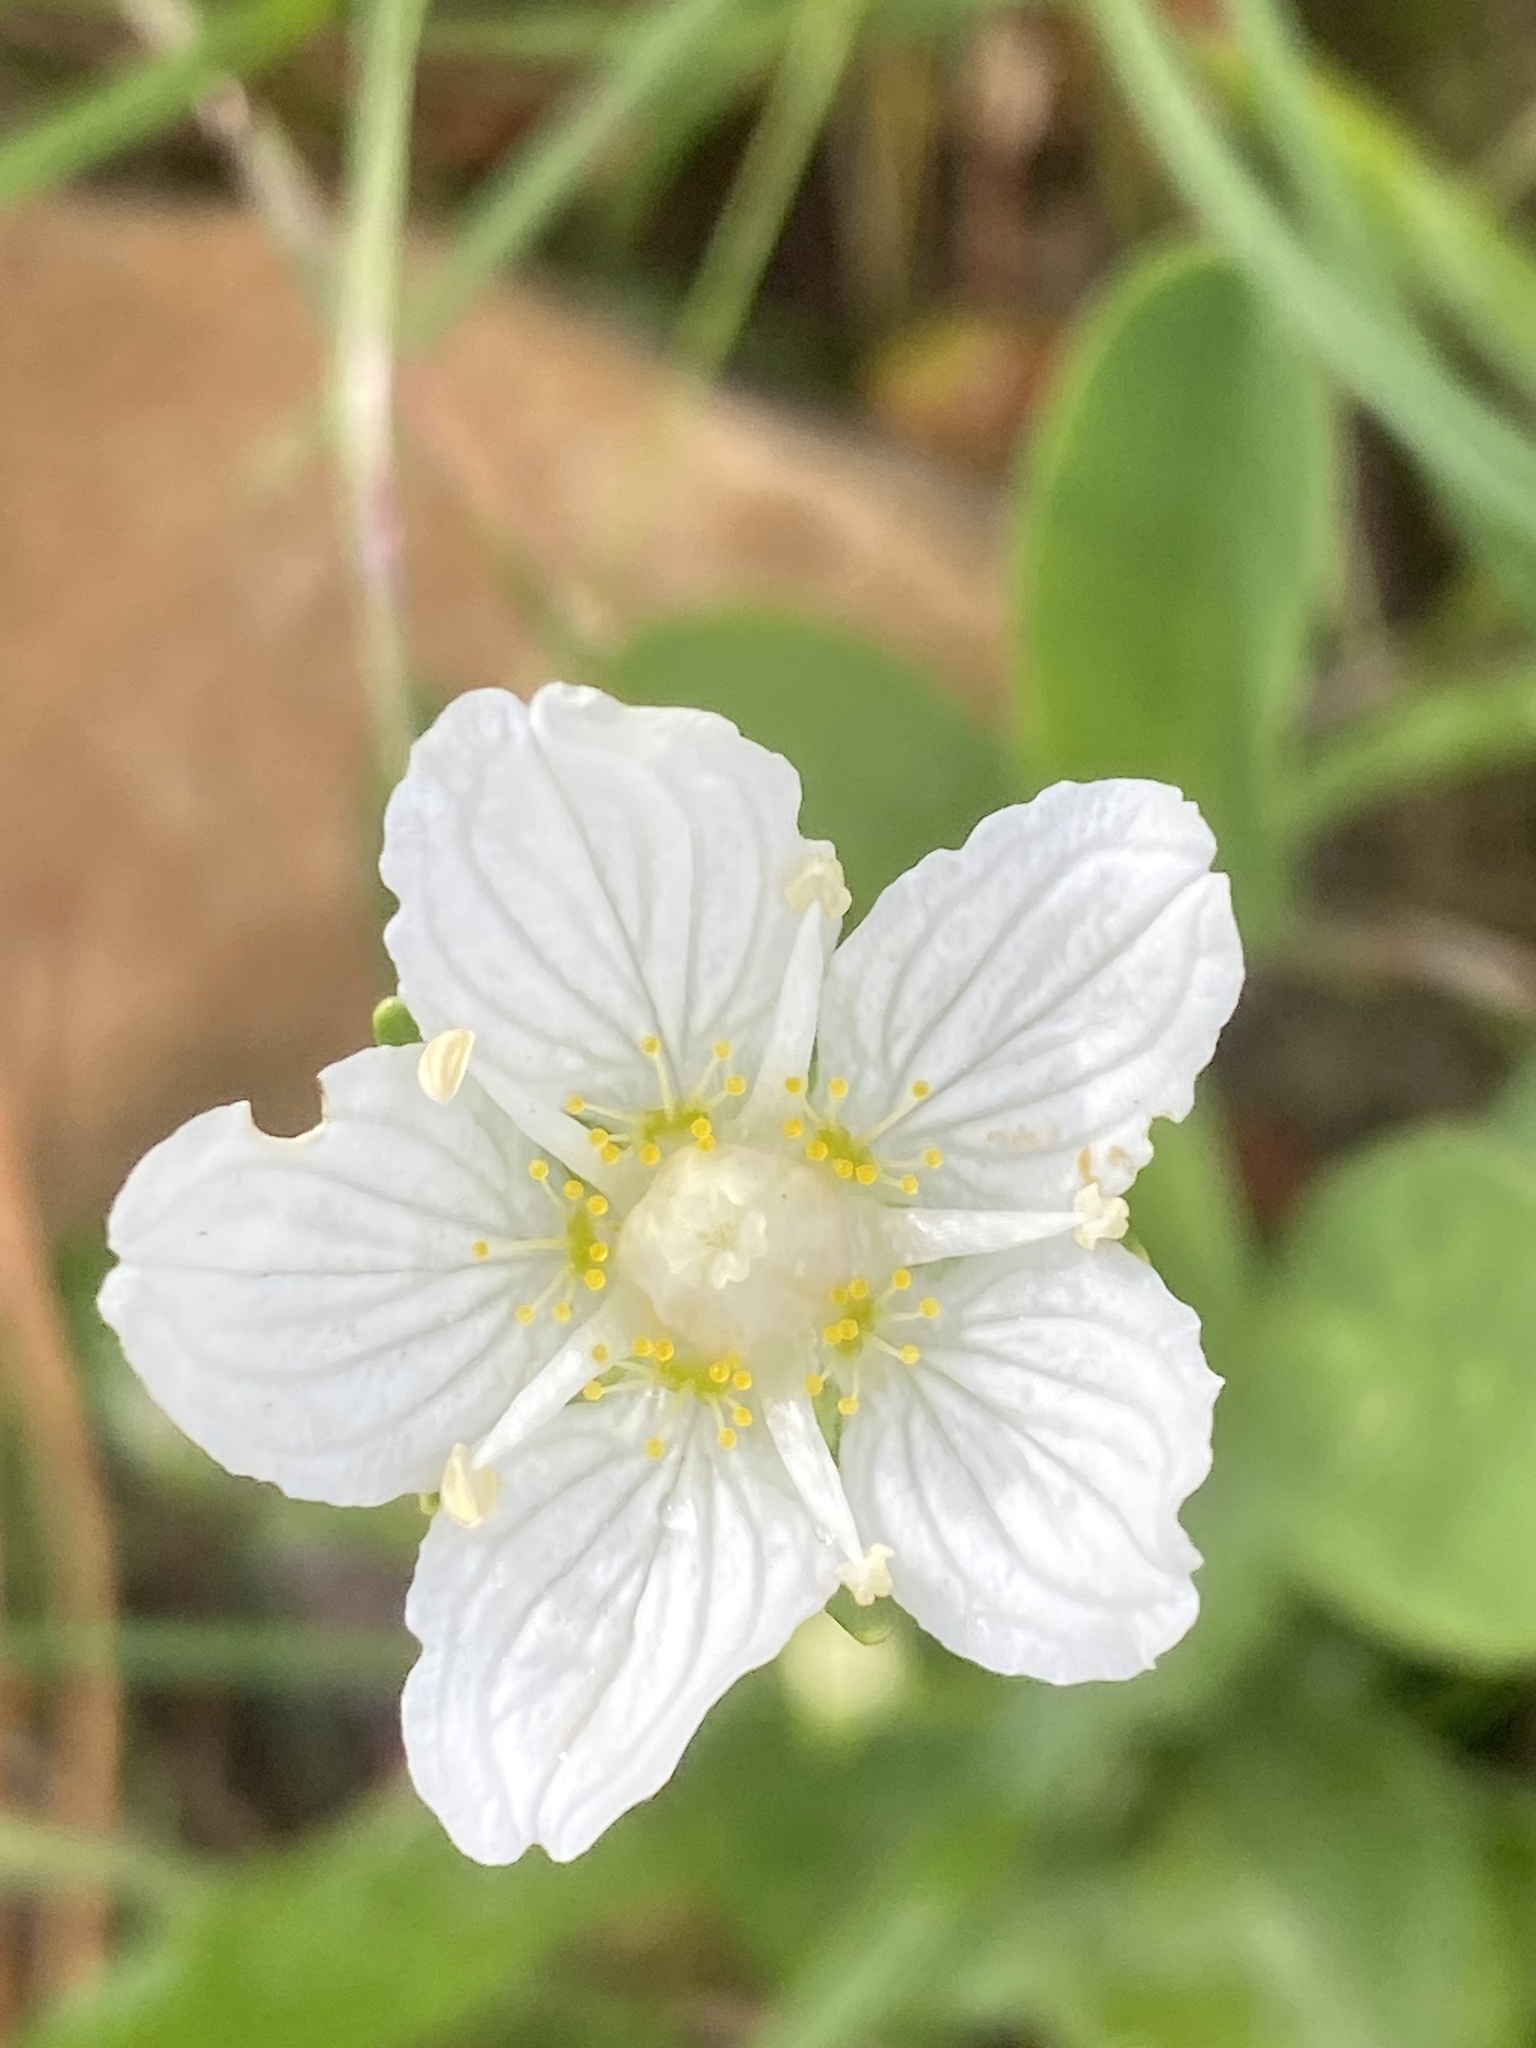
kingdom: Plantae
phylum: Tracheophyta
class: Magnoliopsida
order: Celastrales
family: Parnassiaceae
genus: Parnassia
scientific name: Parnassia palustris
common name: Grass-of-parnassus
